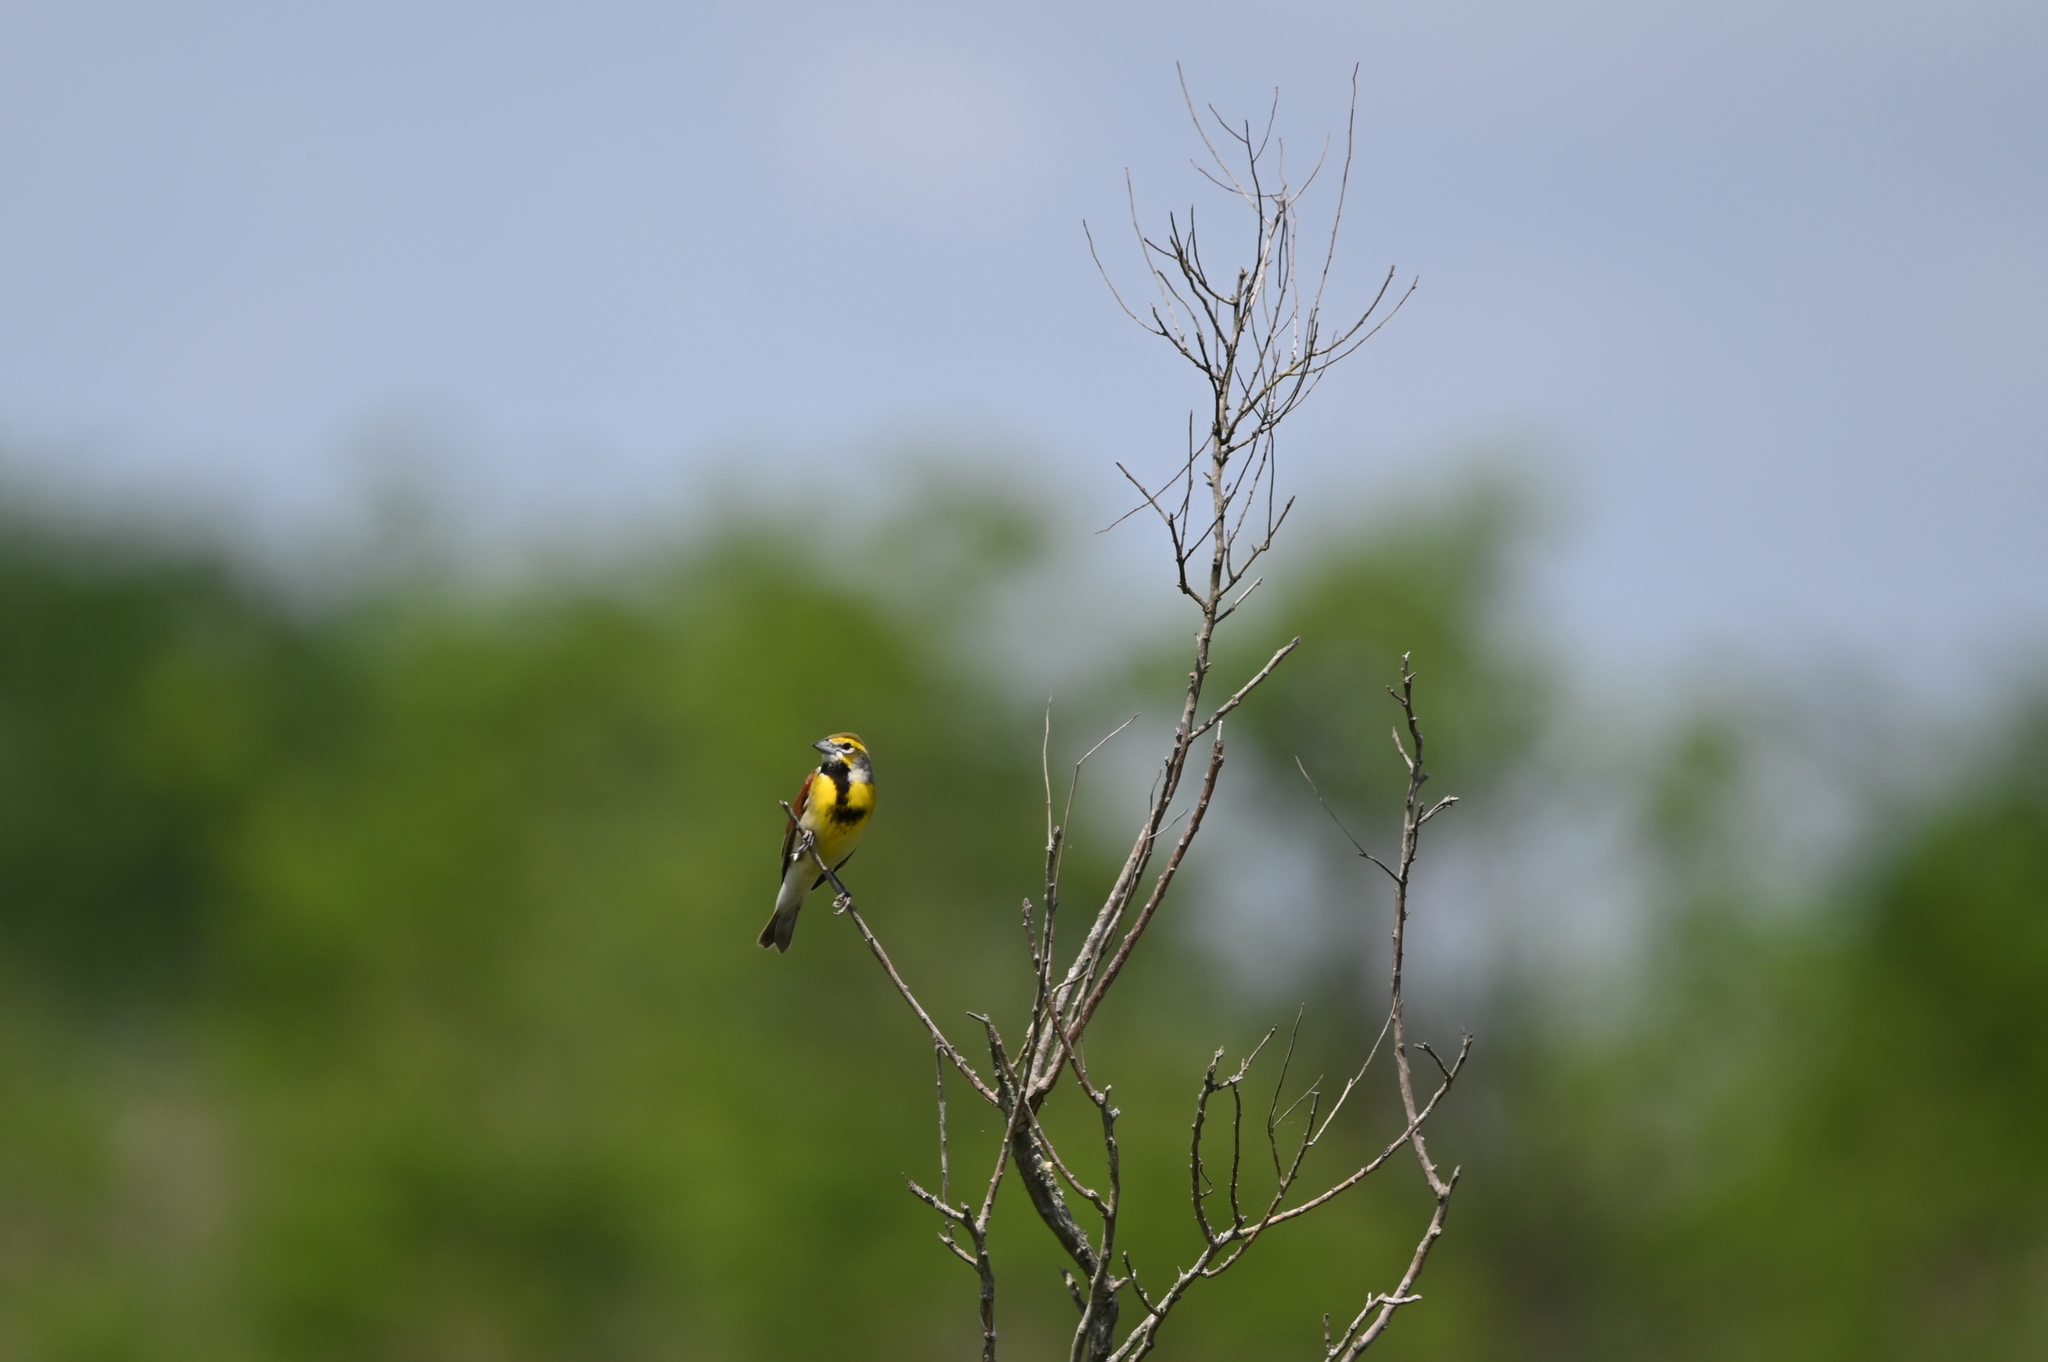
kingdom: Animalia
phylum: Chordata
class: Aves
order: Passeriformes
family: Cardinalidae
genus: Spiza
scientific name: Spiza americana
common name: Dickcissel
